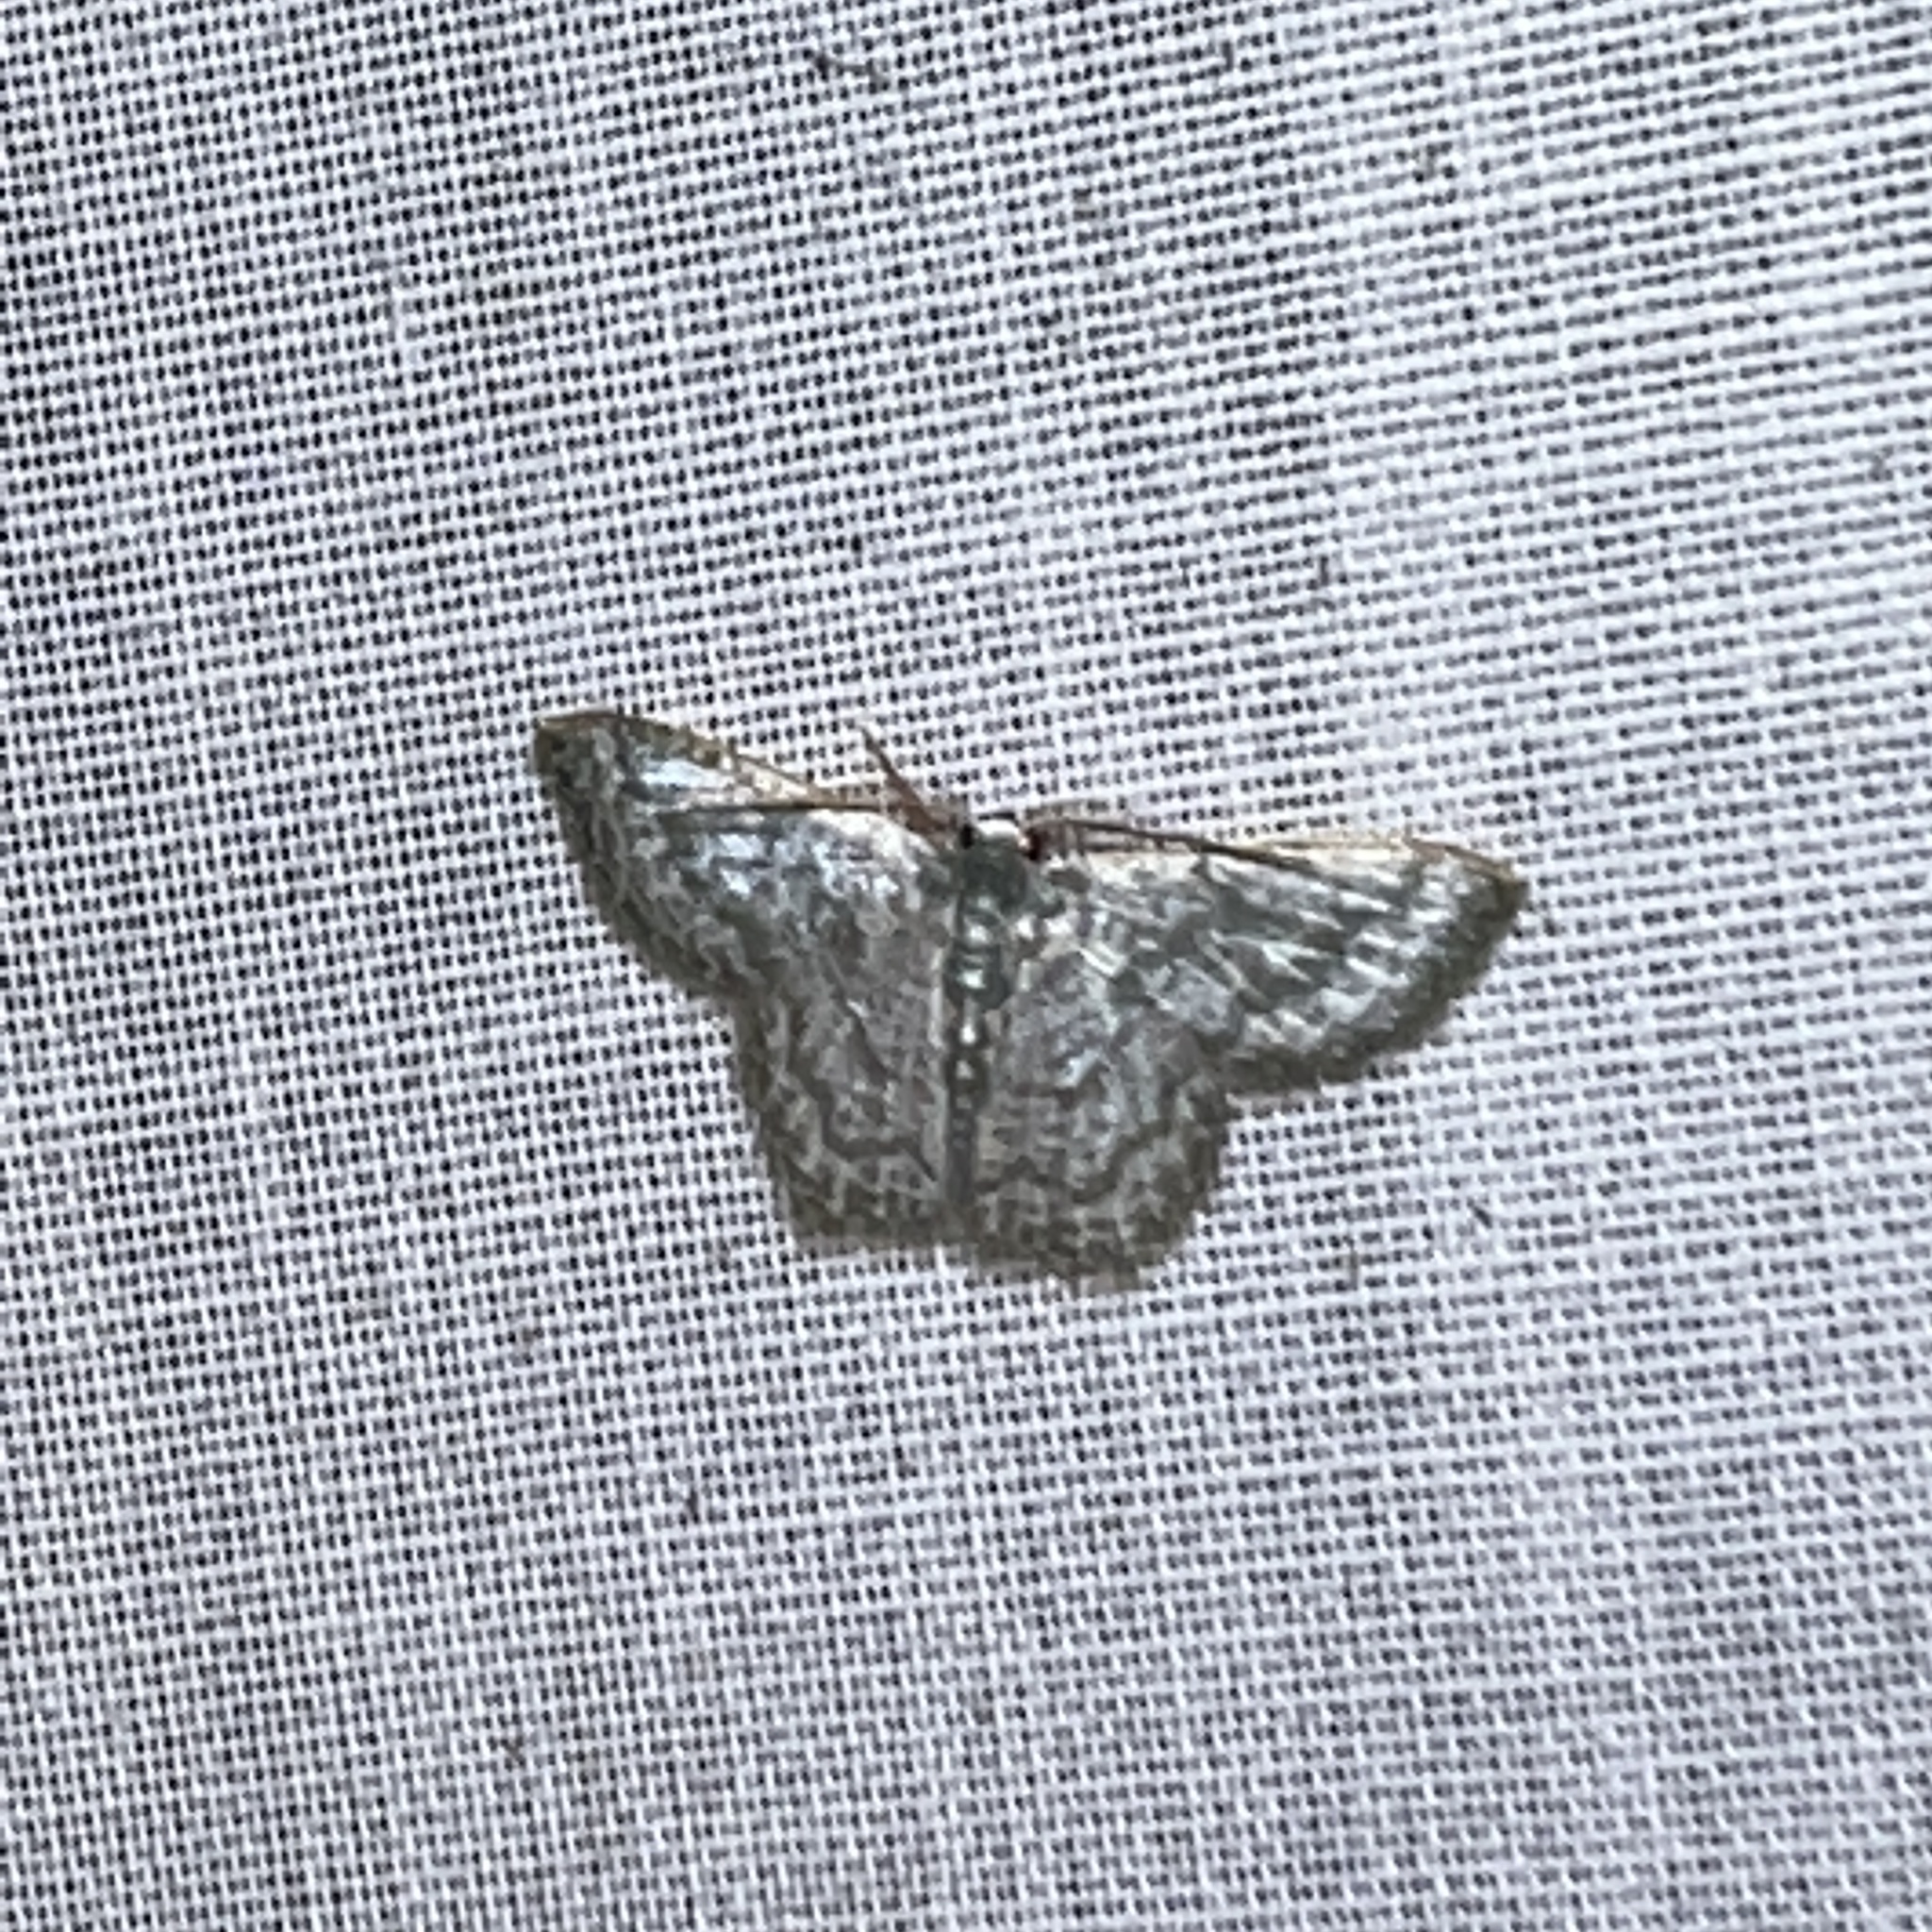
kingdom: Animalia
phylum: Arthropoda
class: Insecta
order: Lepidoptera
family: Geometridae
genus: Chloropteryx
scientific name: Chloropteryx opalaria
